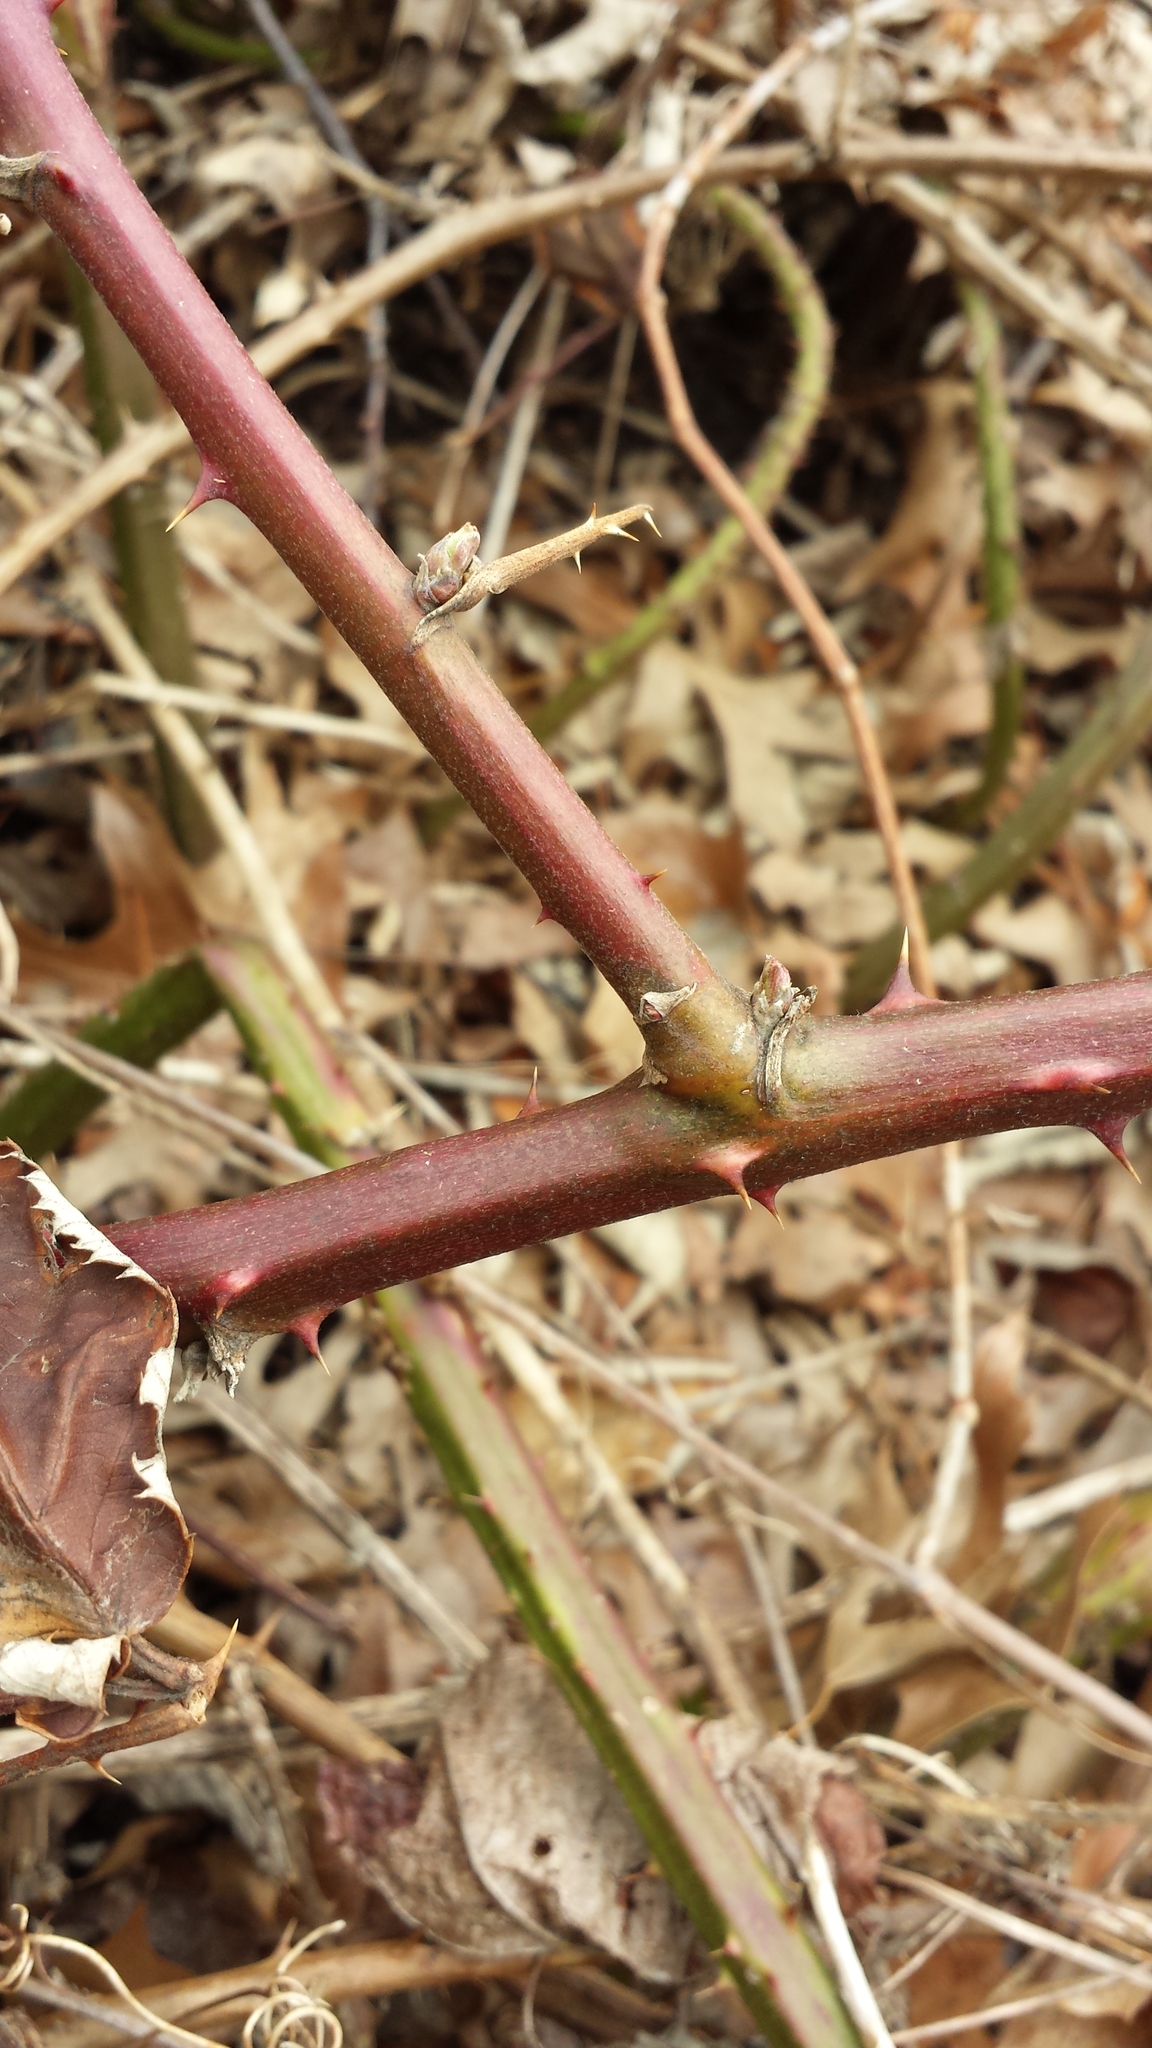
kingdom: Plantae
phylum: Tracheophyta
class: Magnoliopsida
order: Rosales
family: Rosaceae
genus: Rubus
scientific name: Rubus bifrons
